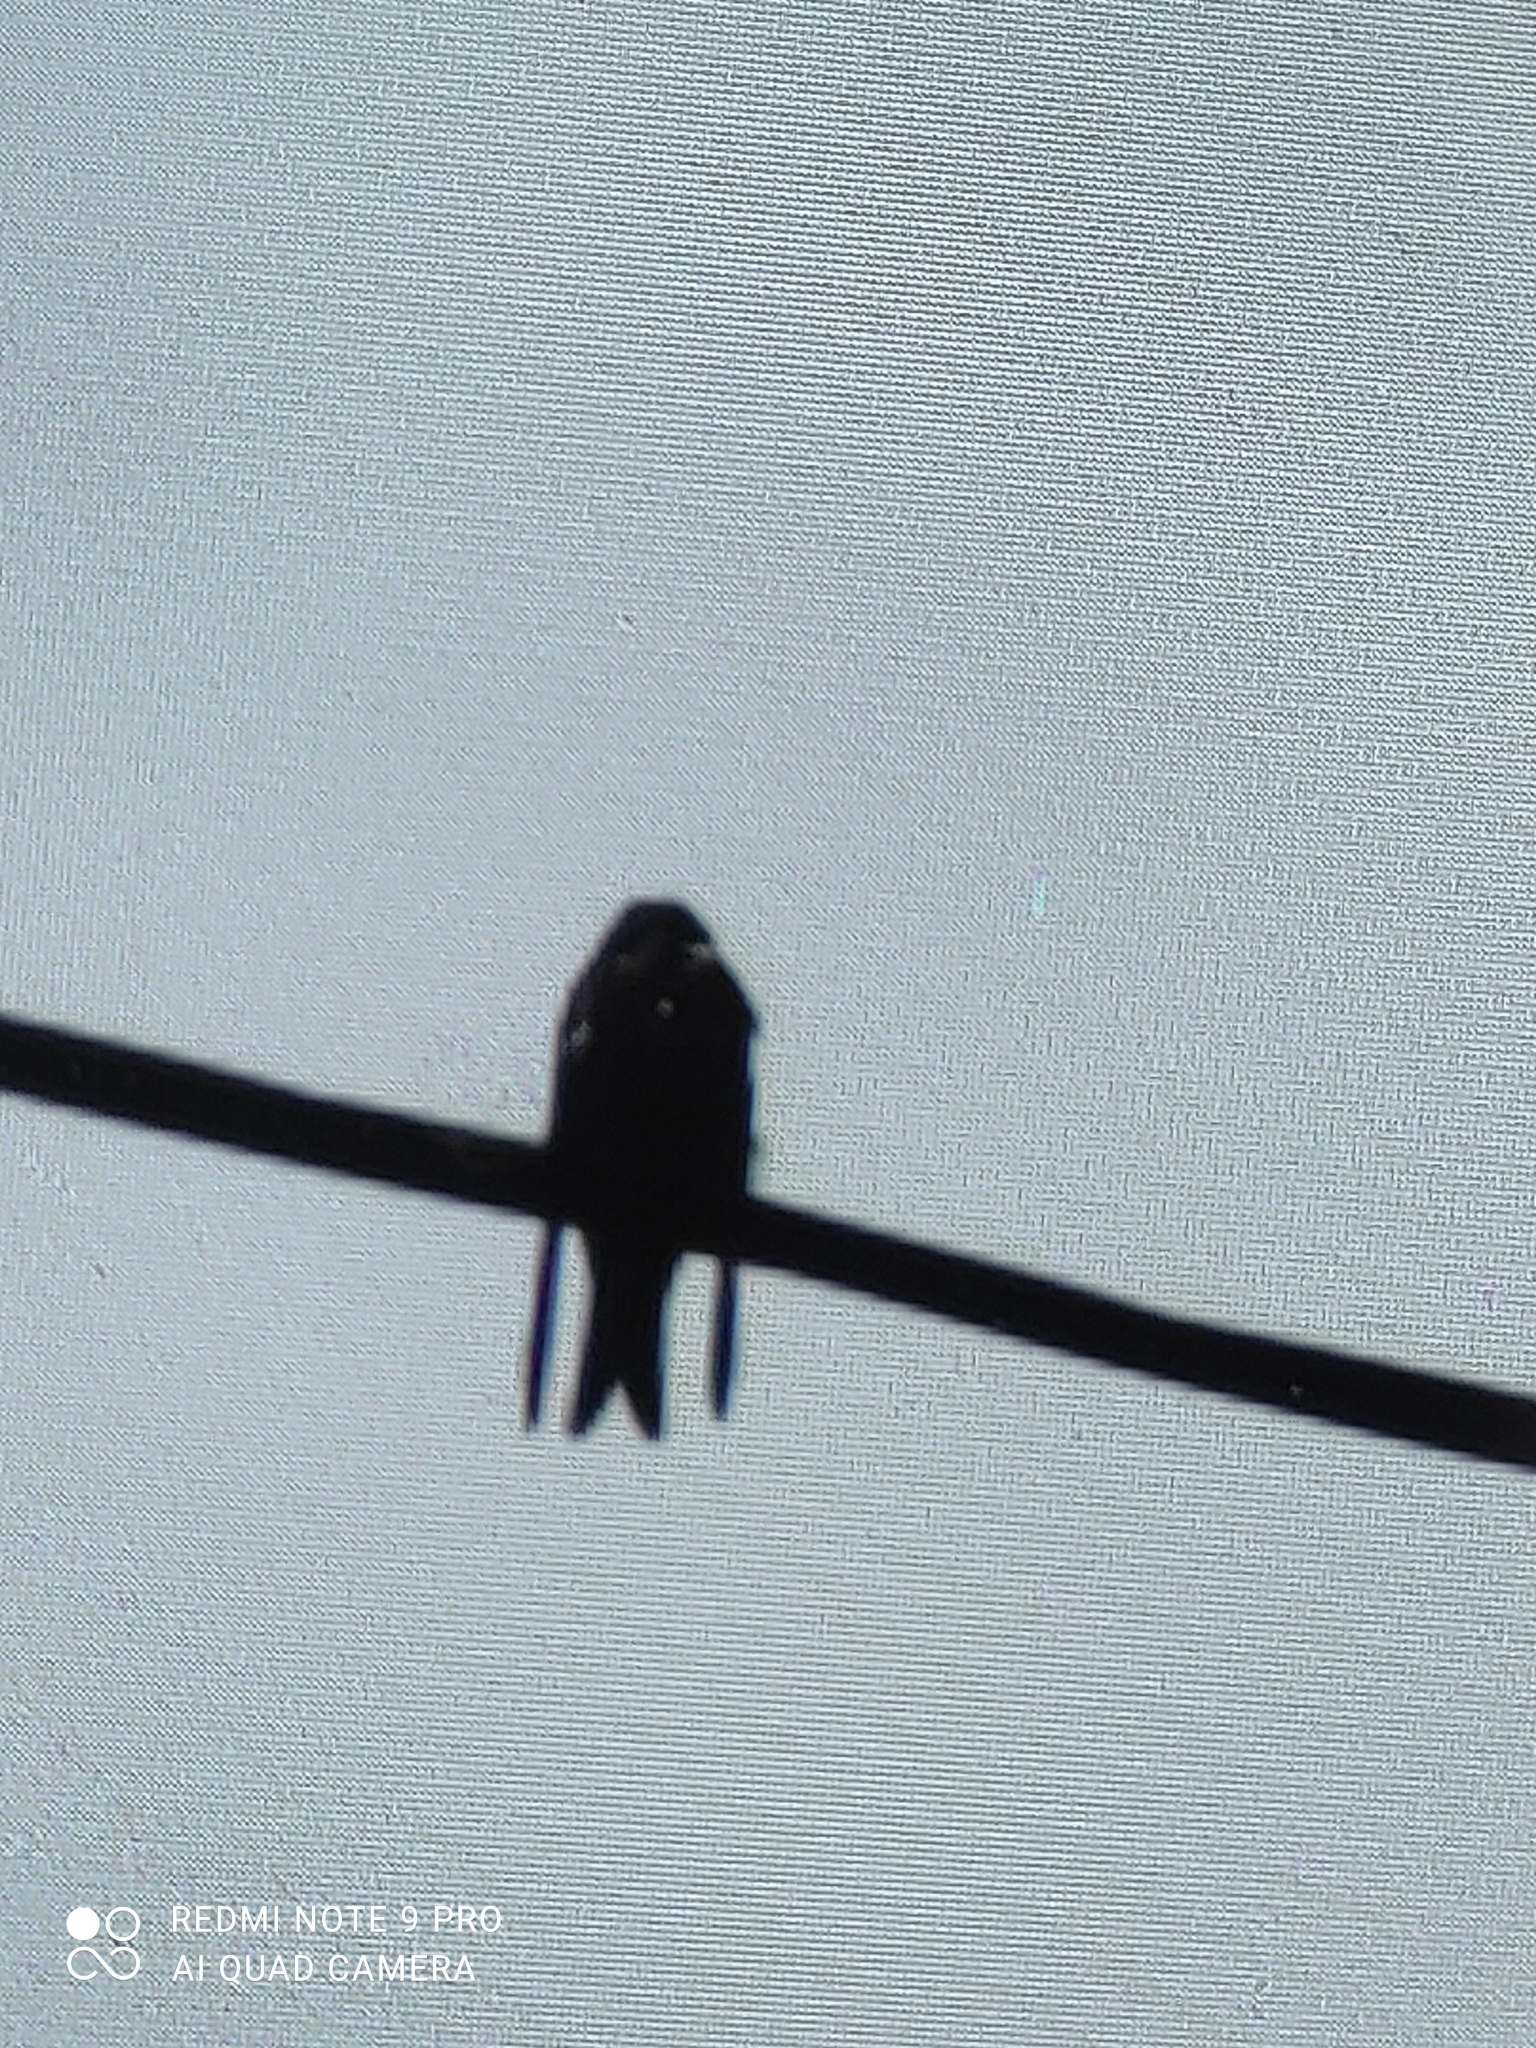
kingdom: Animalia
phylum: Chordata
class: Aves
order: Passeriformes
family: Hirundinidae
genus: Notiochelidon
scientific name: Notiochelidon cyanoleuca
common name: Blue-and-white swallow
